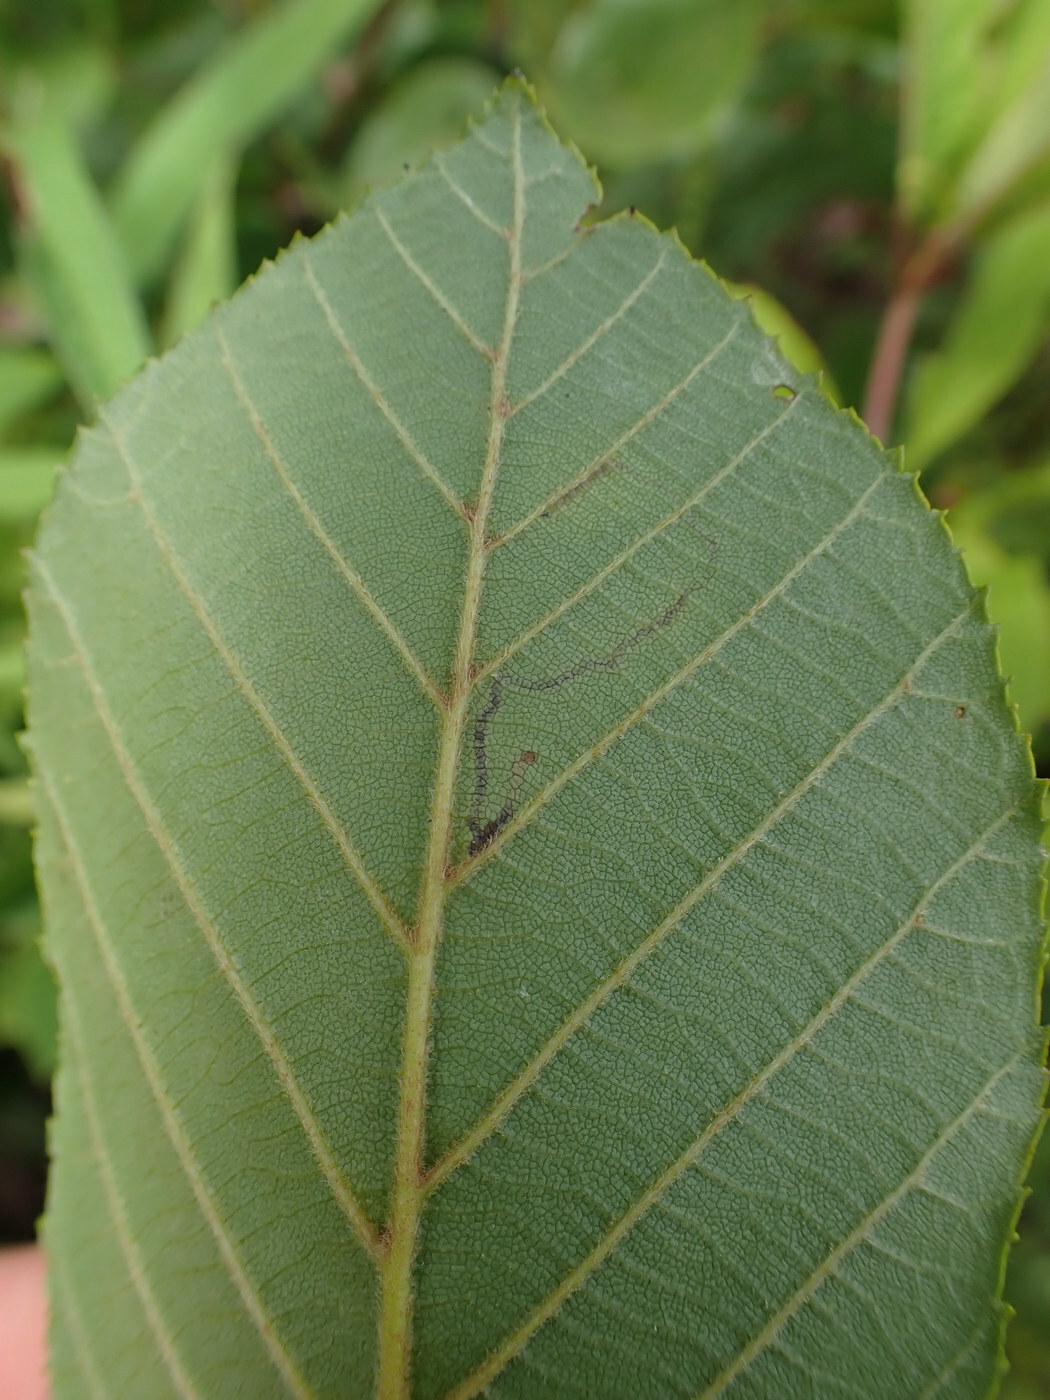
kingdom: Animalia
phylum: Arthropoda
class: Insecta
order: Lepidoptera
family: Bucculatricidae
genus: Bucculatrix
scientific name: Bucculatrix locuples
